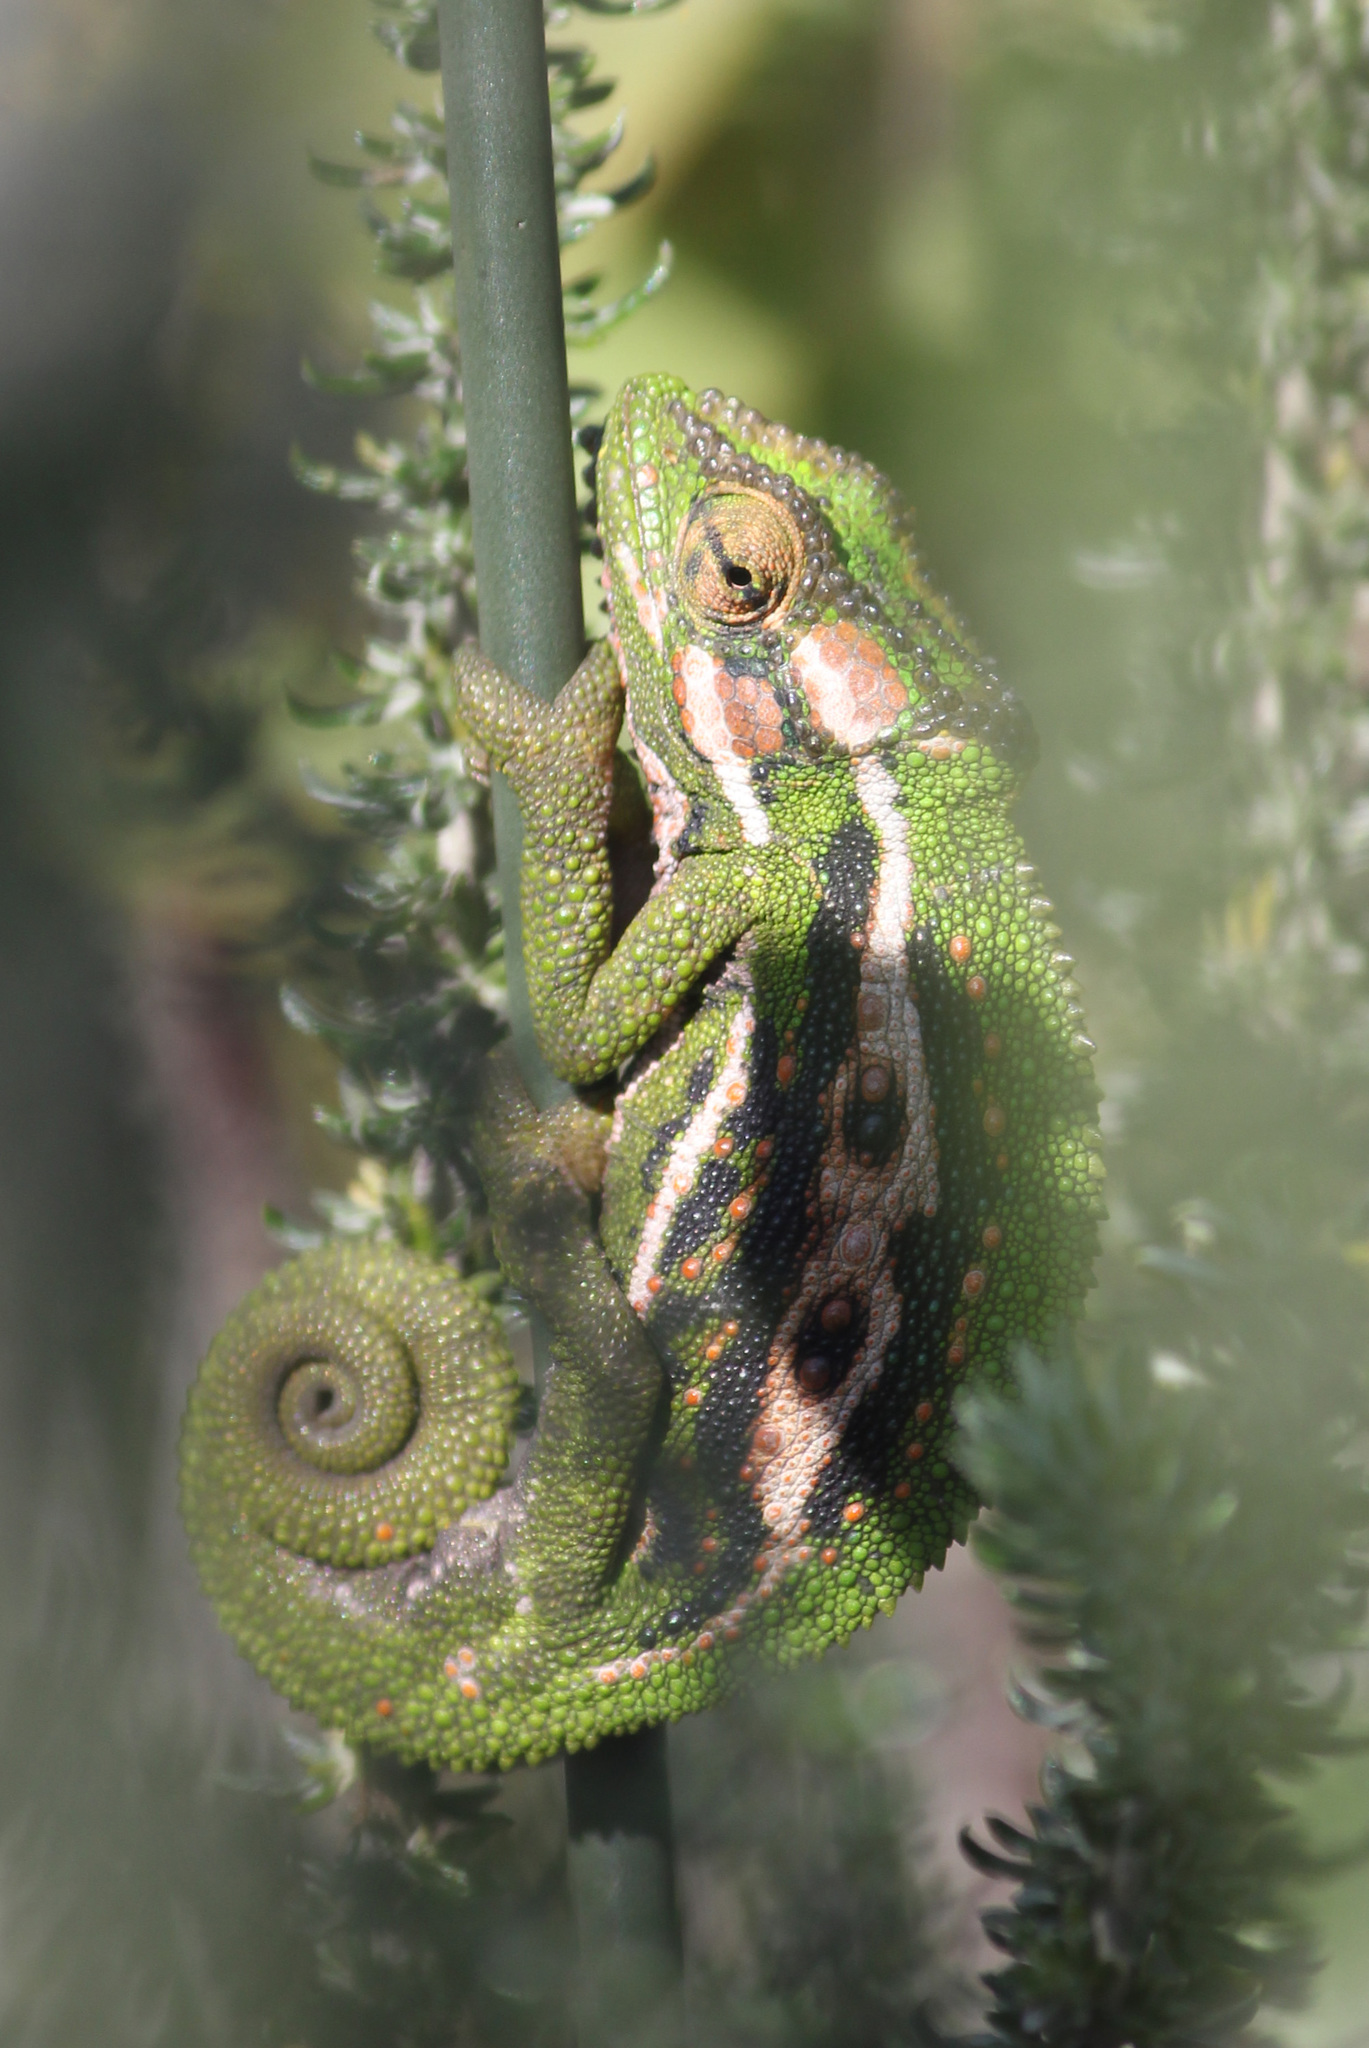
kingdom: Animalia
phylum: Chordata
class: Squamata
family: Chamaeleonidae
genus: Bradypodion
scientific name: Bradypodion pumilum
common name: Cape dwarf chameleon
